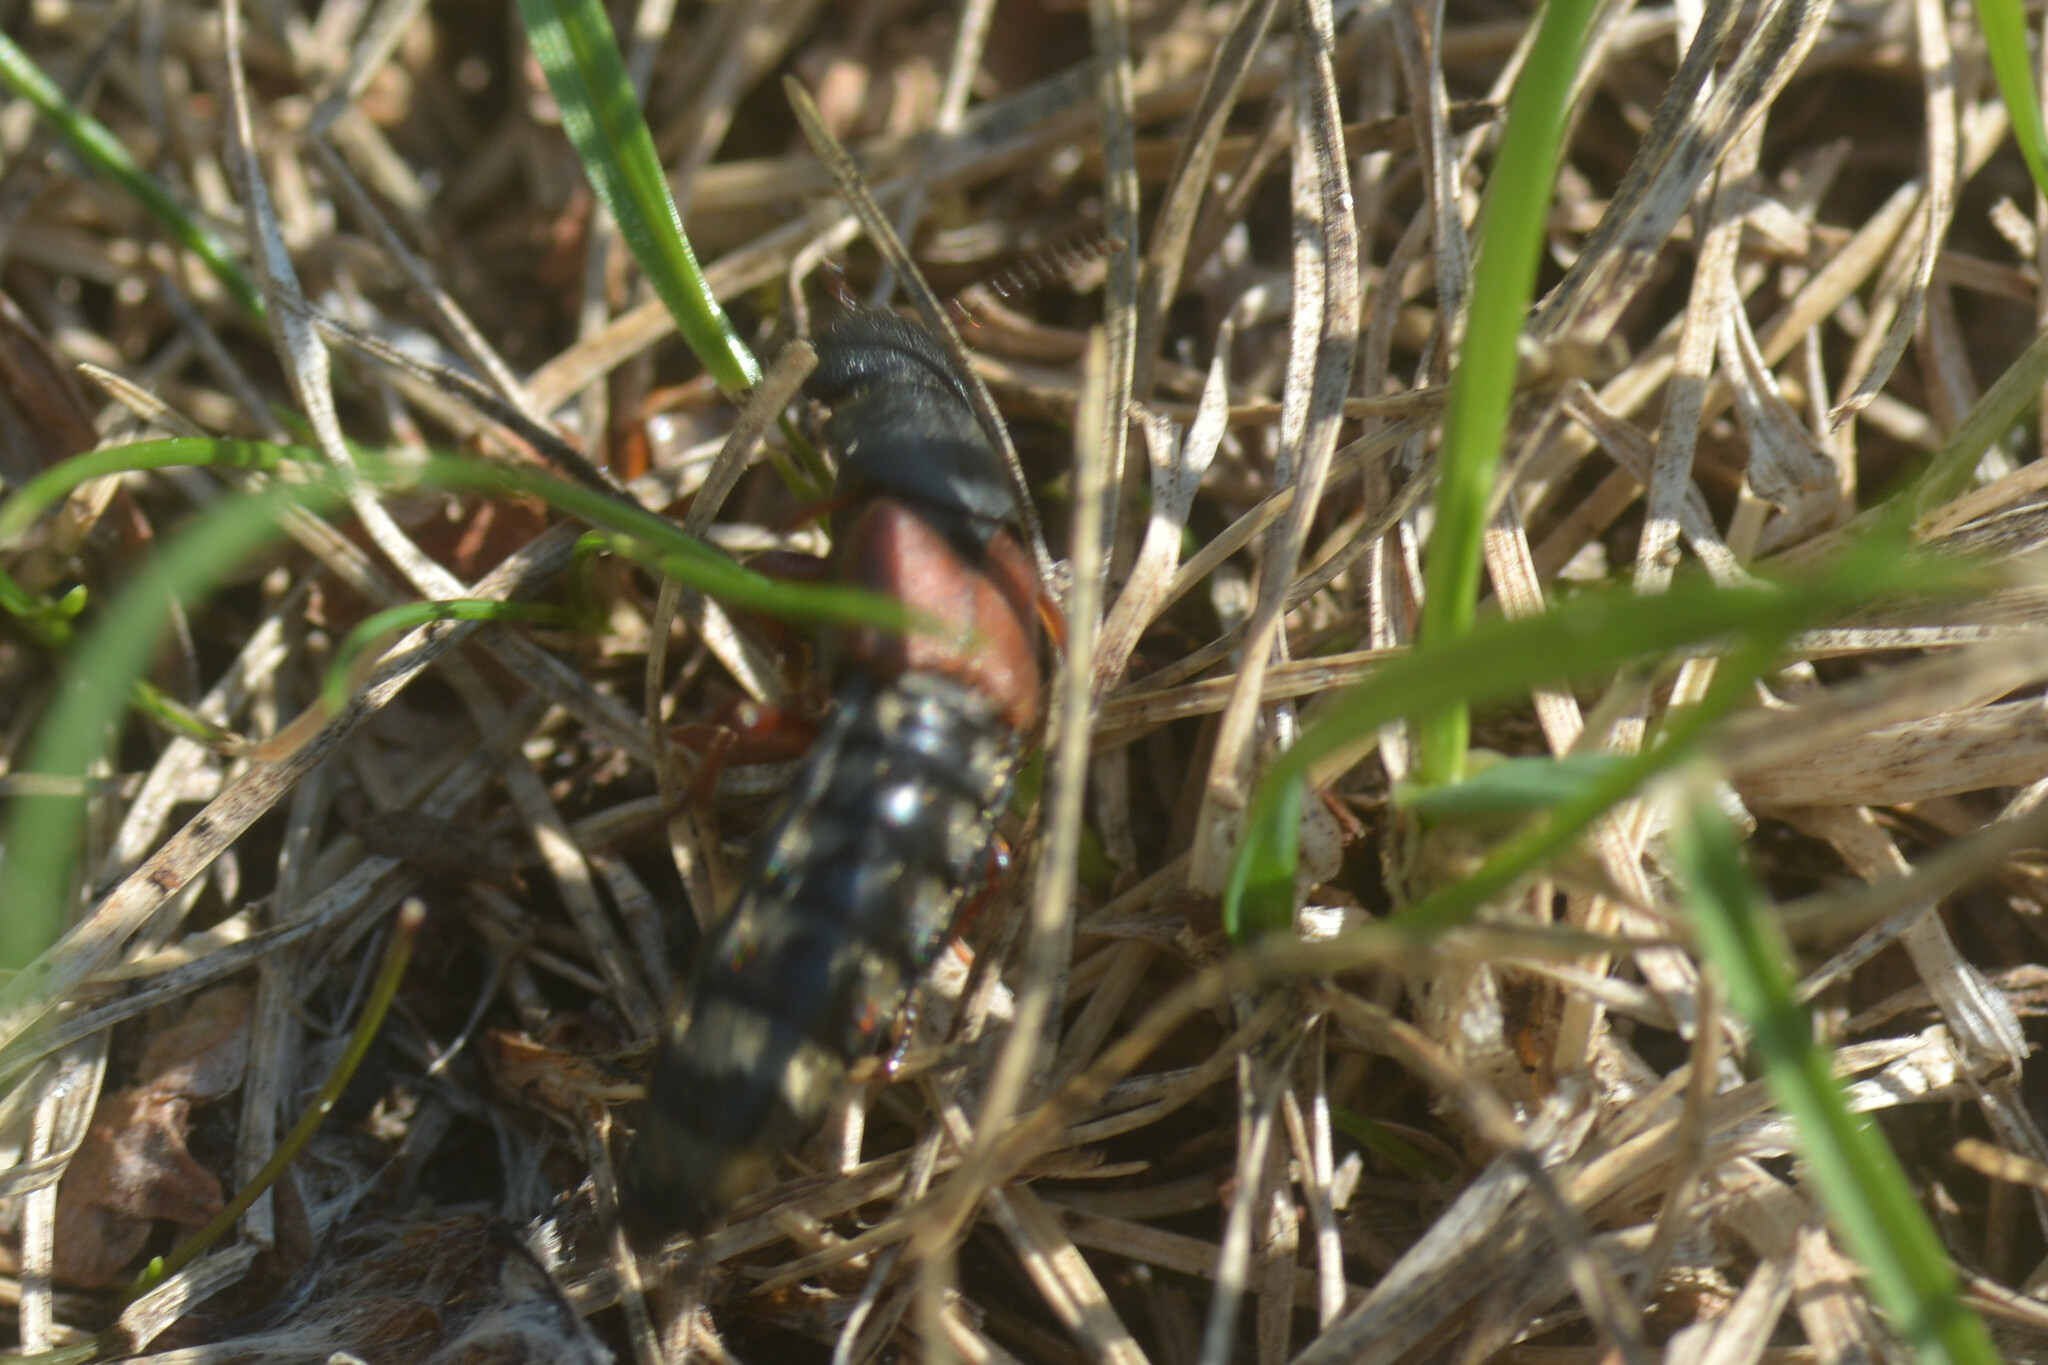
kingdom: Animalia
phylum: Arthropoda
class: Insecta
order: Coleoptera
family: Staphylinidae
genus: Platydracus
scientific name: Platydracus stercorarius
